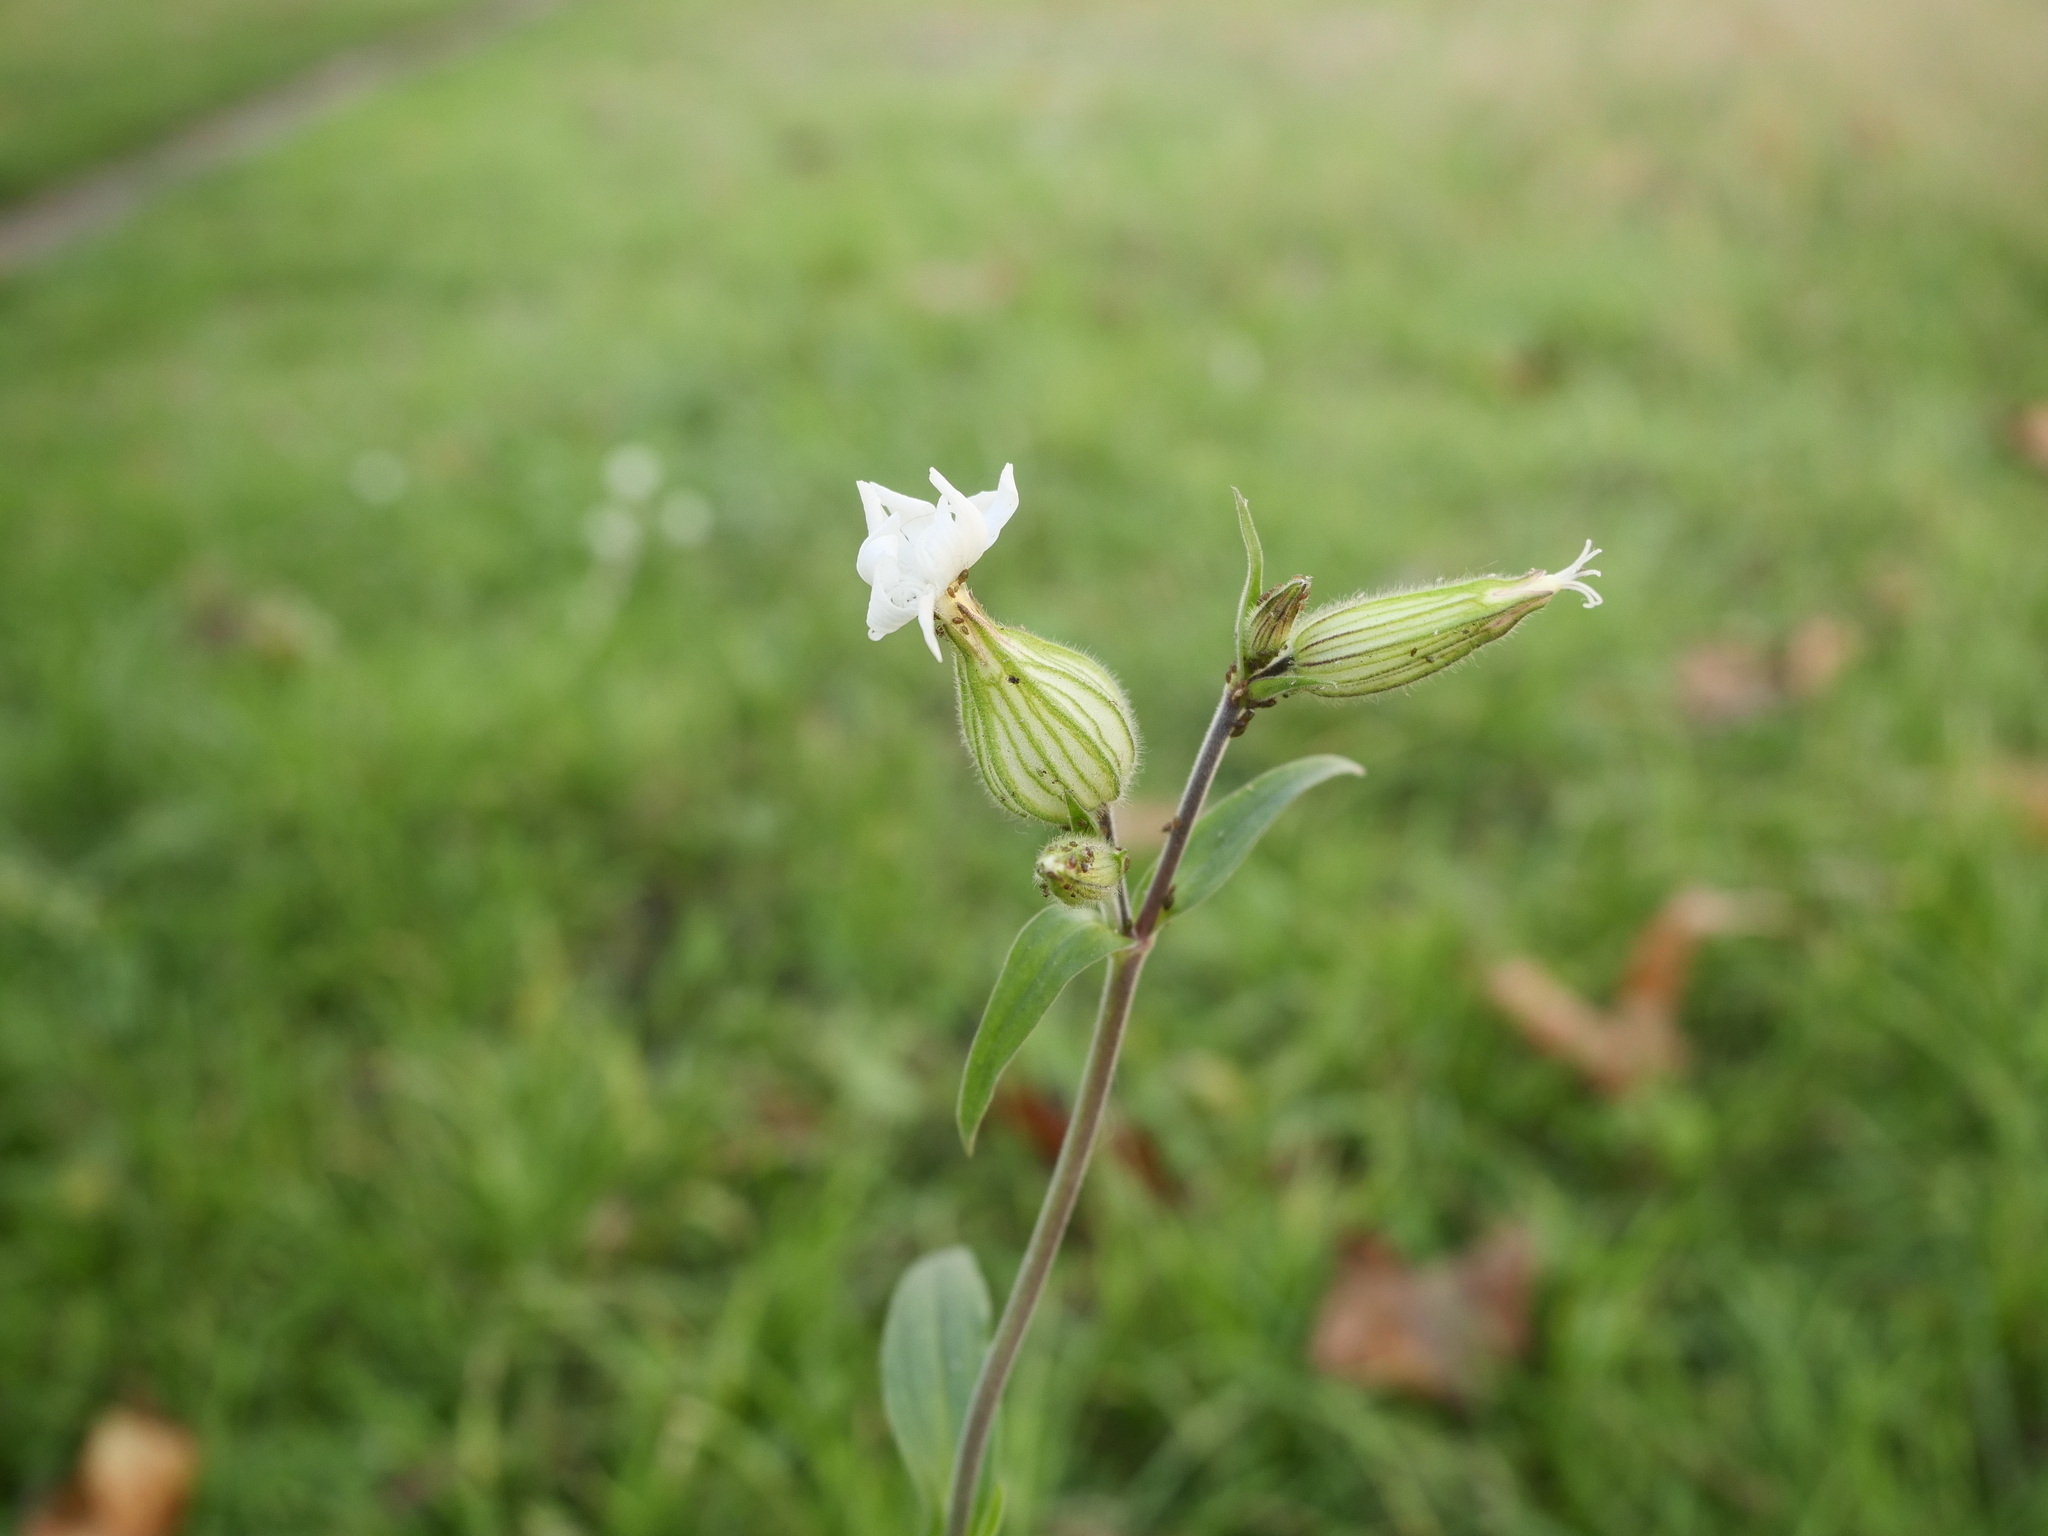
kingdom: Plantae
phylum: Tracheophyta
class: Magnoliopsida
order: Caryophyllales
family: Caryophyllaceae
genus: Silene
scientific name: Silene latifolia
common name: White campion
